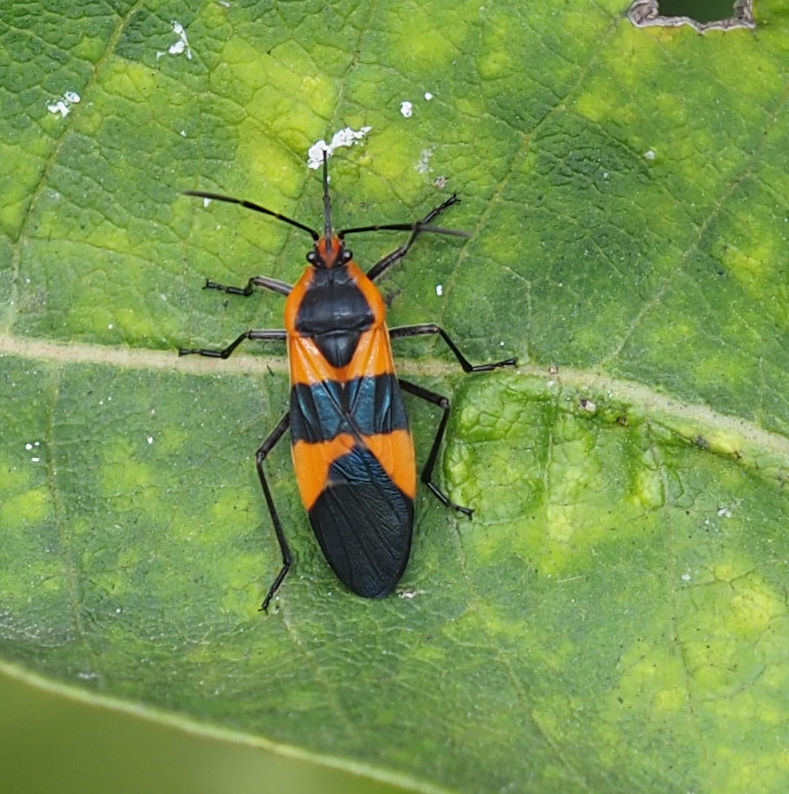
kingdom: Animalia
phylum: Arthropoda
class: Insecta
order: Hemiptera
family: Lygaeidae
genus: Oncopeltus
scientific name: Oncopeltus fasciatus
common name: Large milkweed bug
